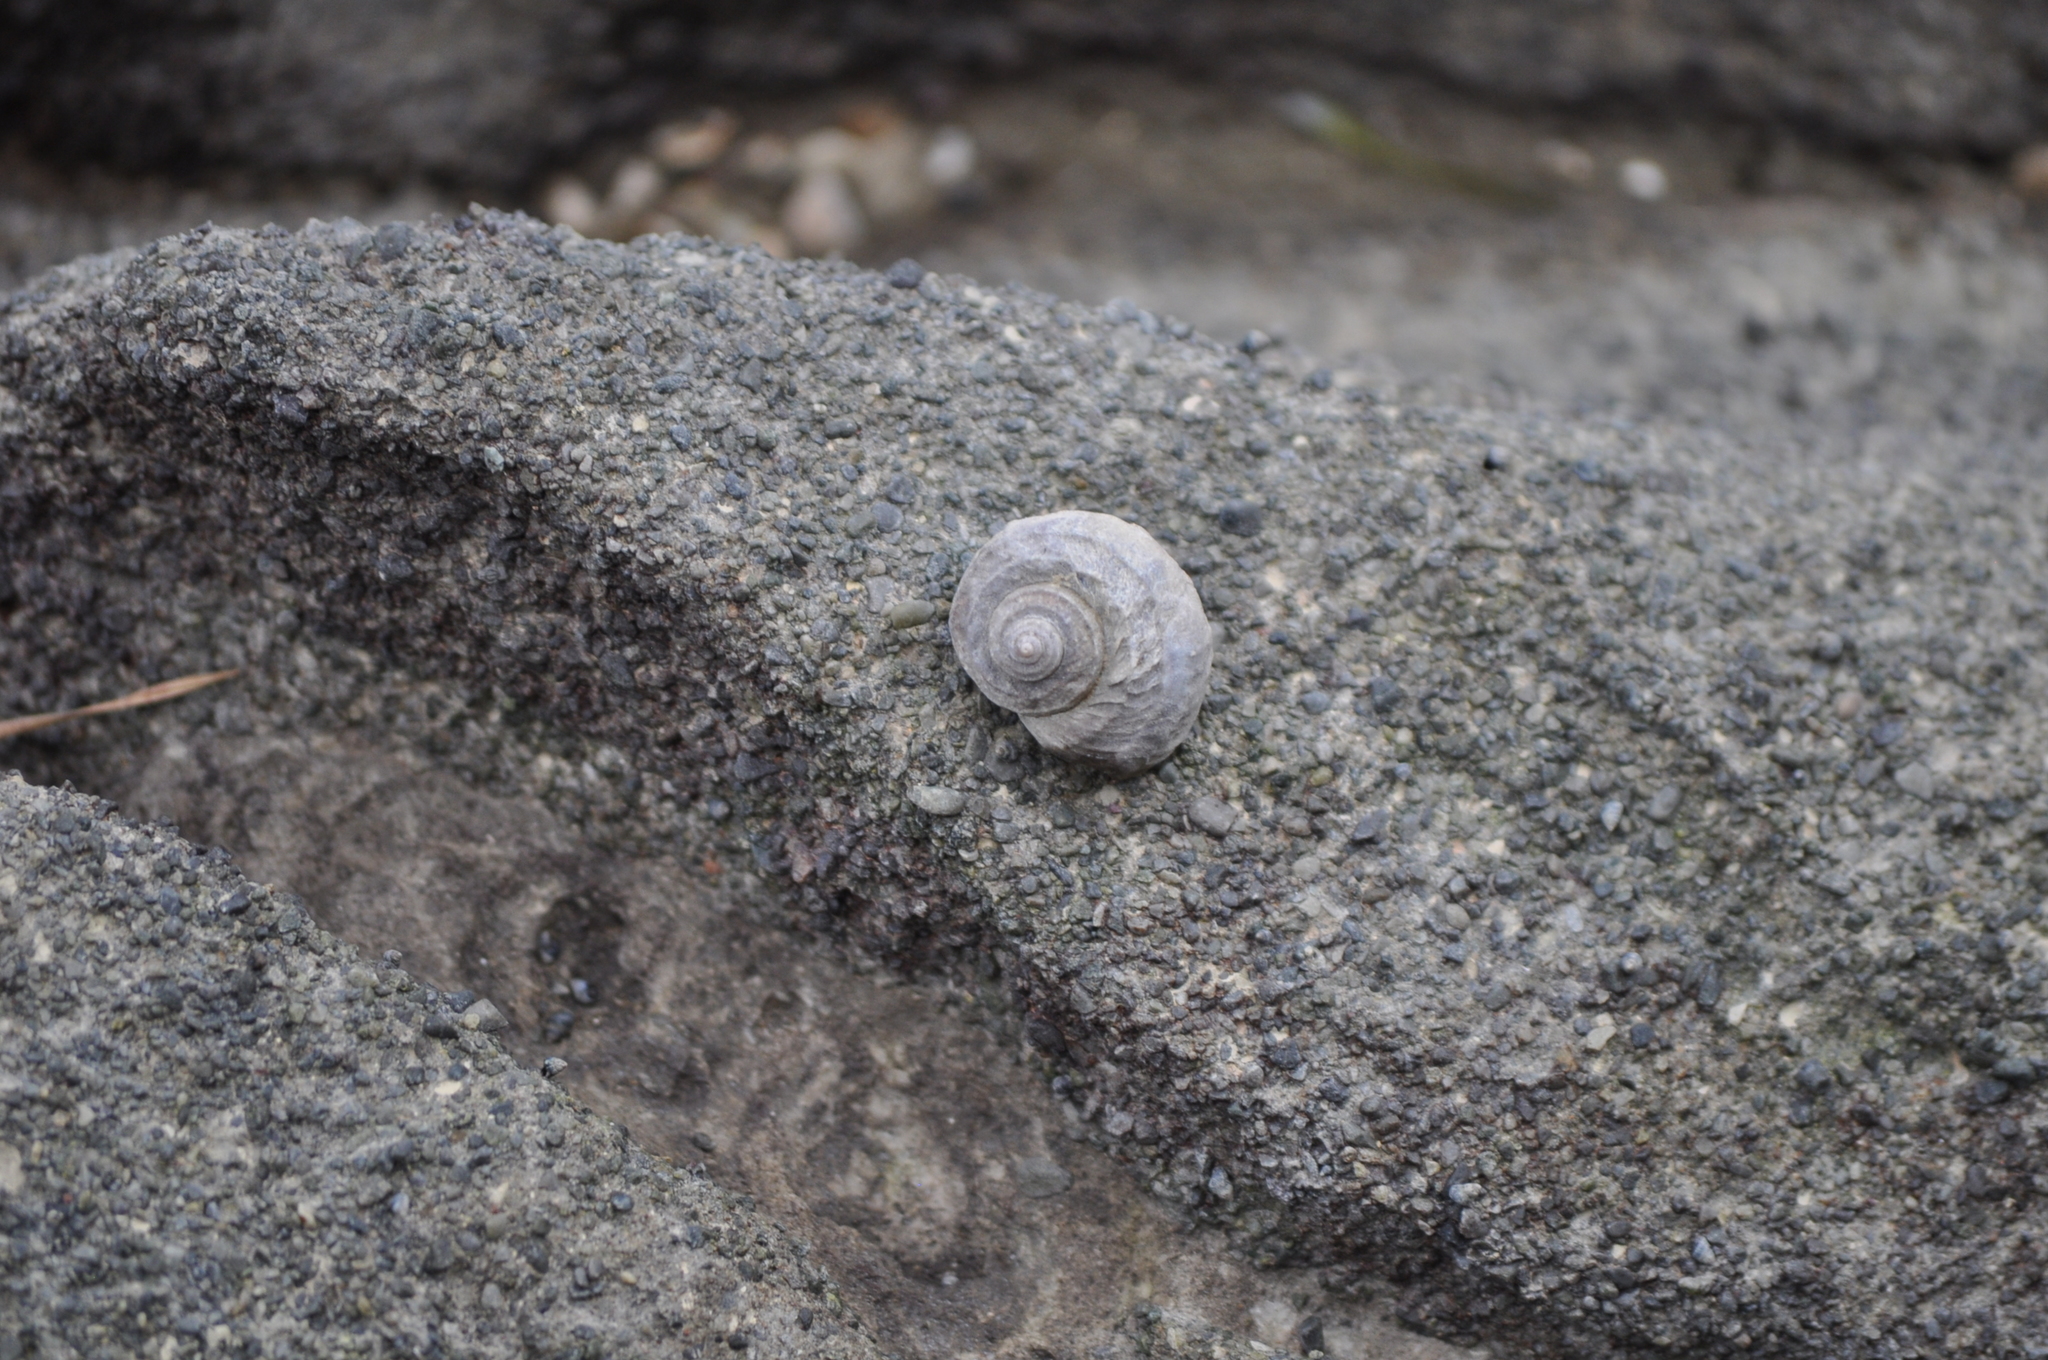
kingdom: Animalia
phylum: Mollusca
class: Gastropoda
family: Amphibolidae
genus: Amphibola
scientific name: Amphibola crenata
